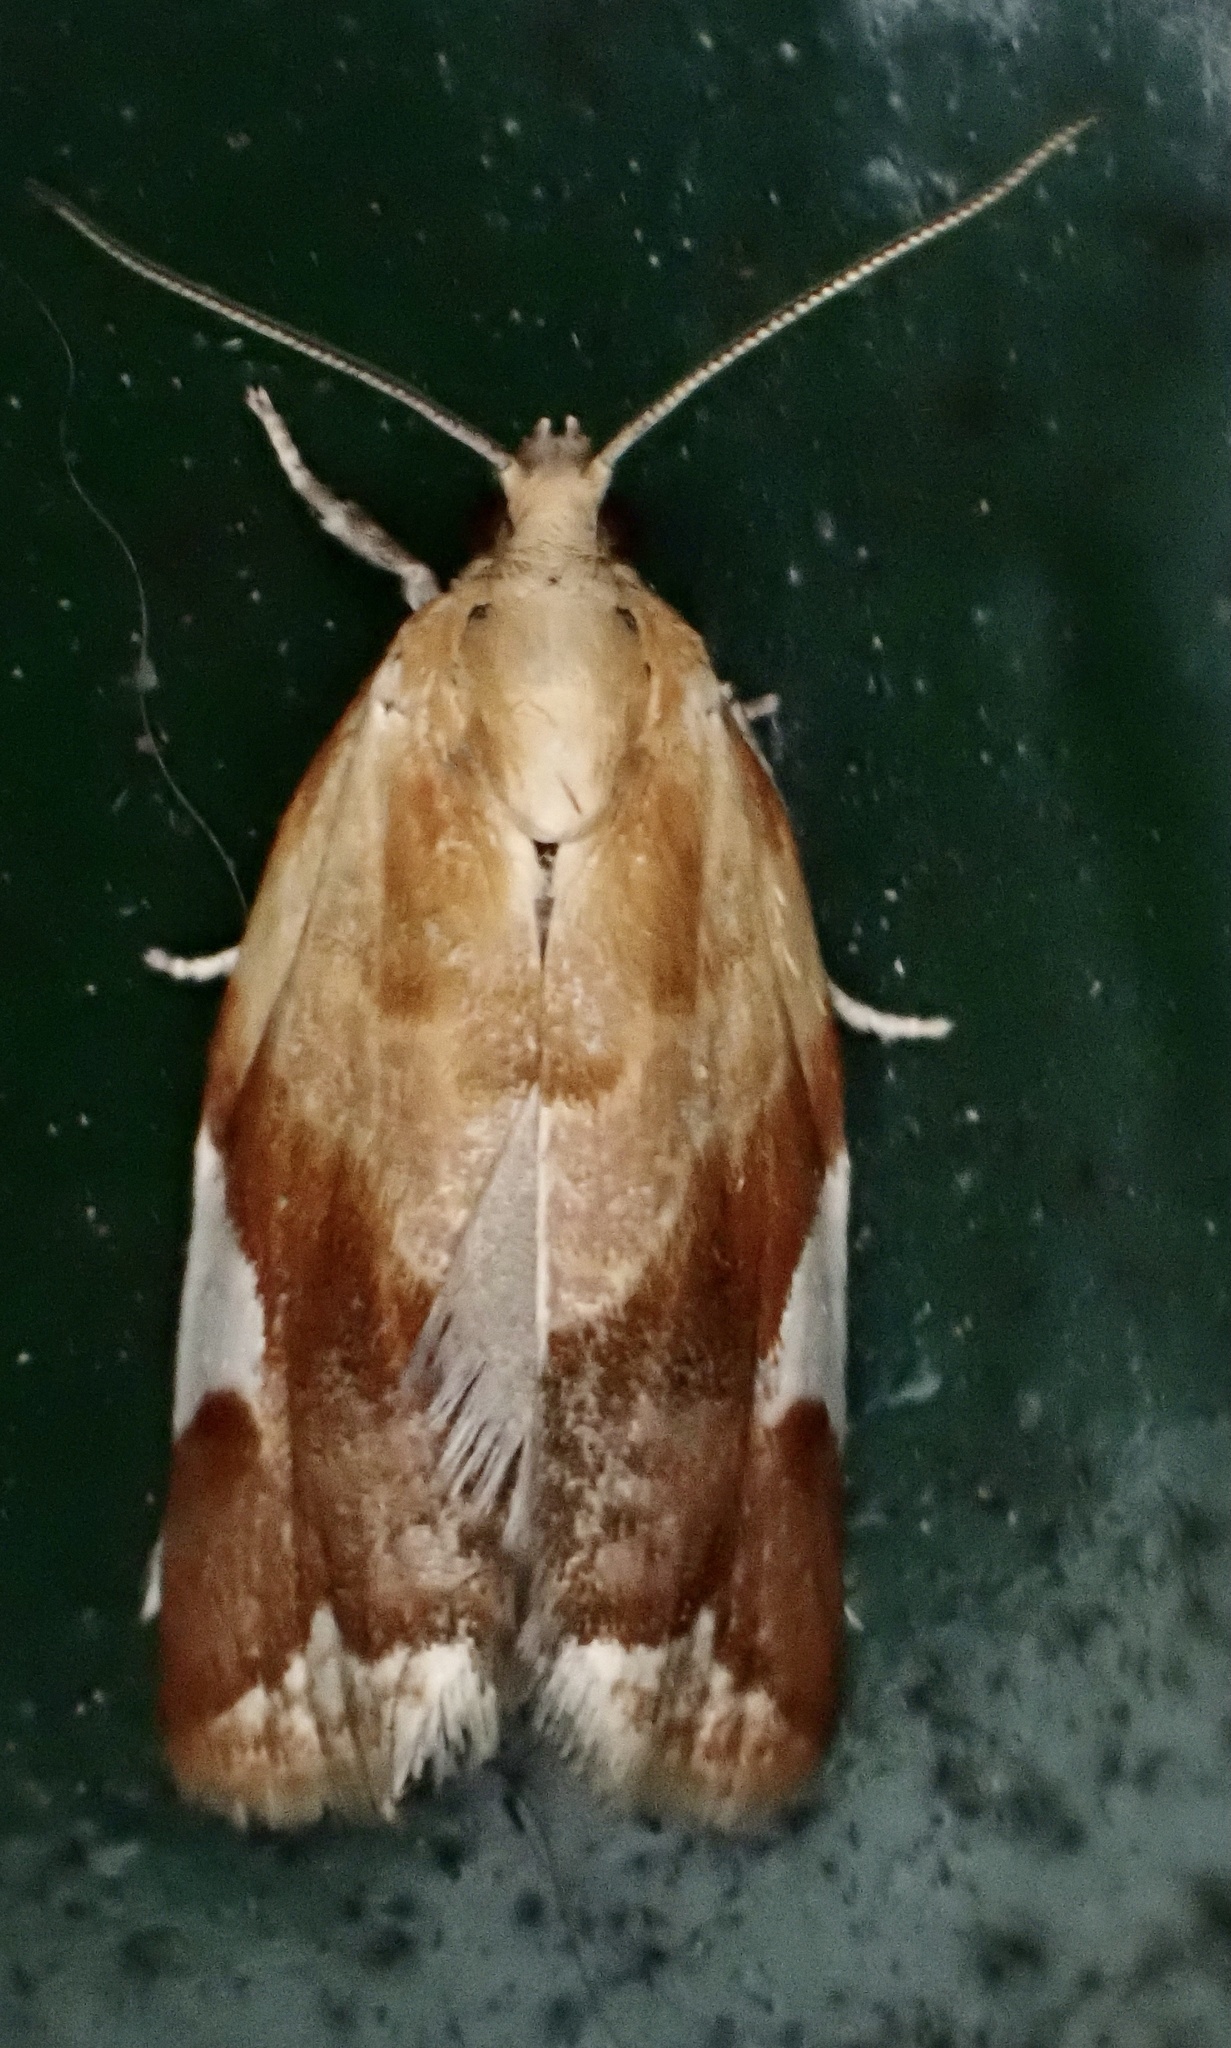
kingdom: Animalia
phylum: Arthropoda
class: Insecta
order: Lepidoptera
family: Tortricidae
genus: Clepsis
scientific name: Clepsis persicana
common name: White triangle tortrix
